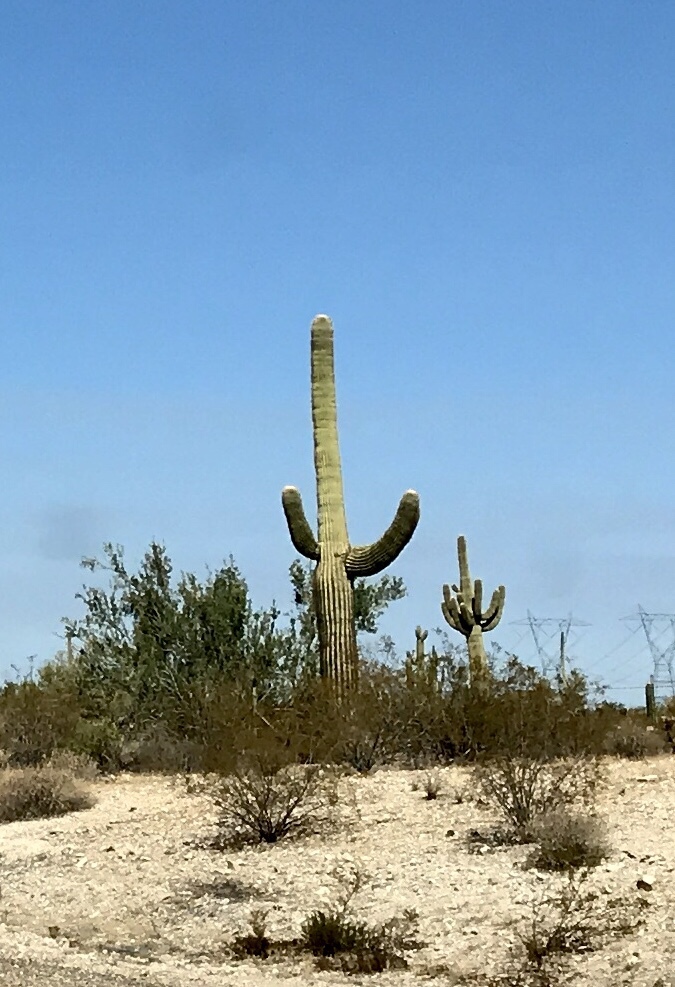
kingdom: Plantae
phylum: Tracheophyta
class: Magnoliopsida
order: Caryophyllales
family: Cactaceae
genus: Carnegiea
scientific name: Carnegiea gigantea
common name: Saguaro
